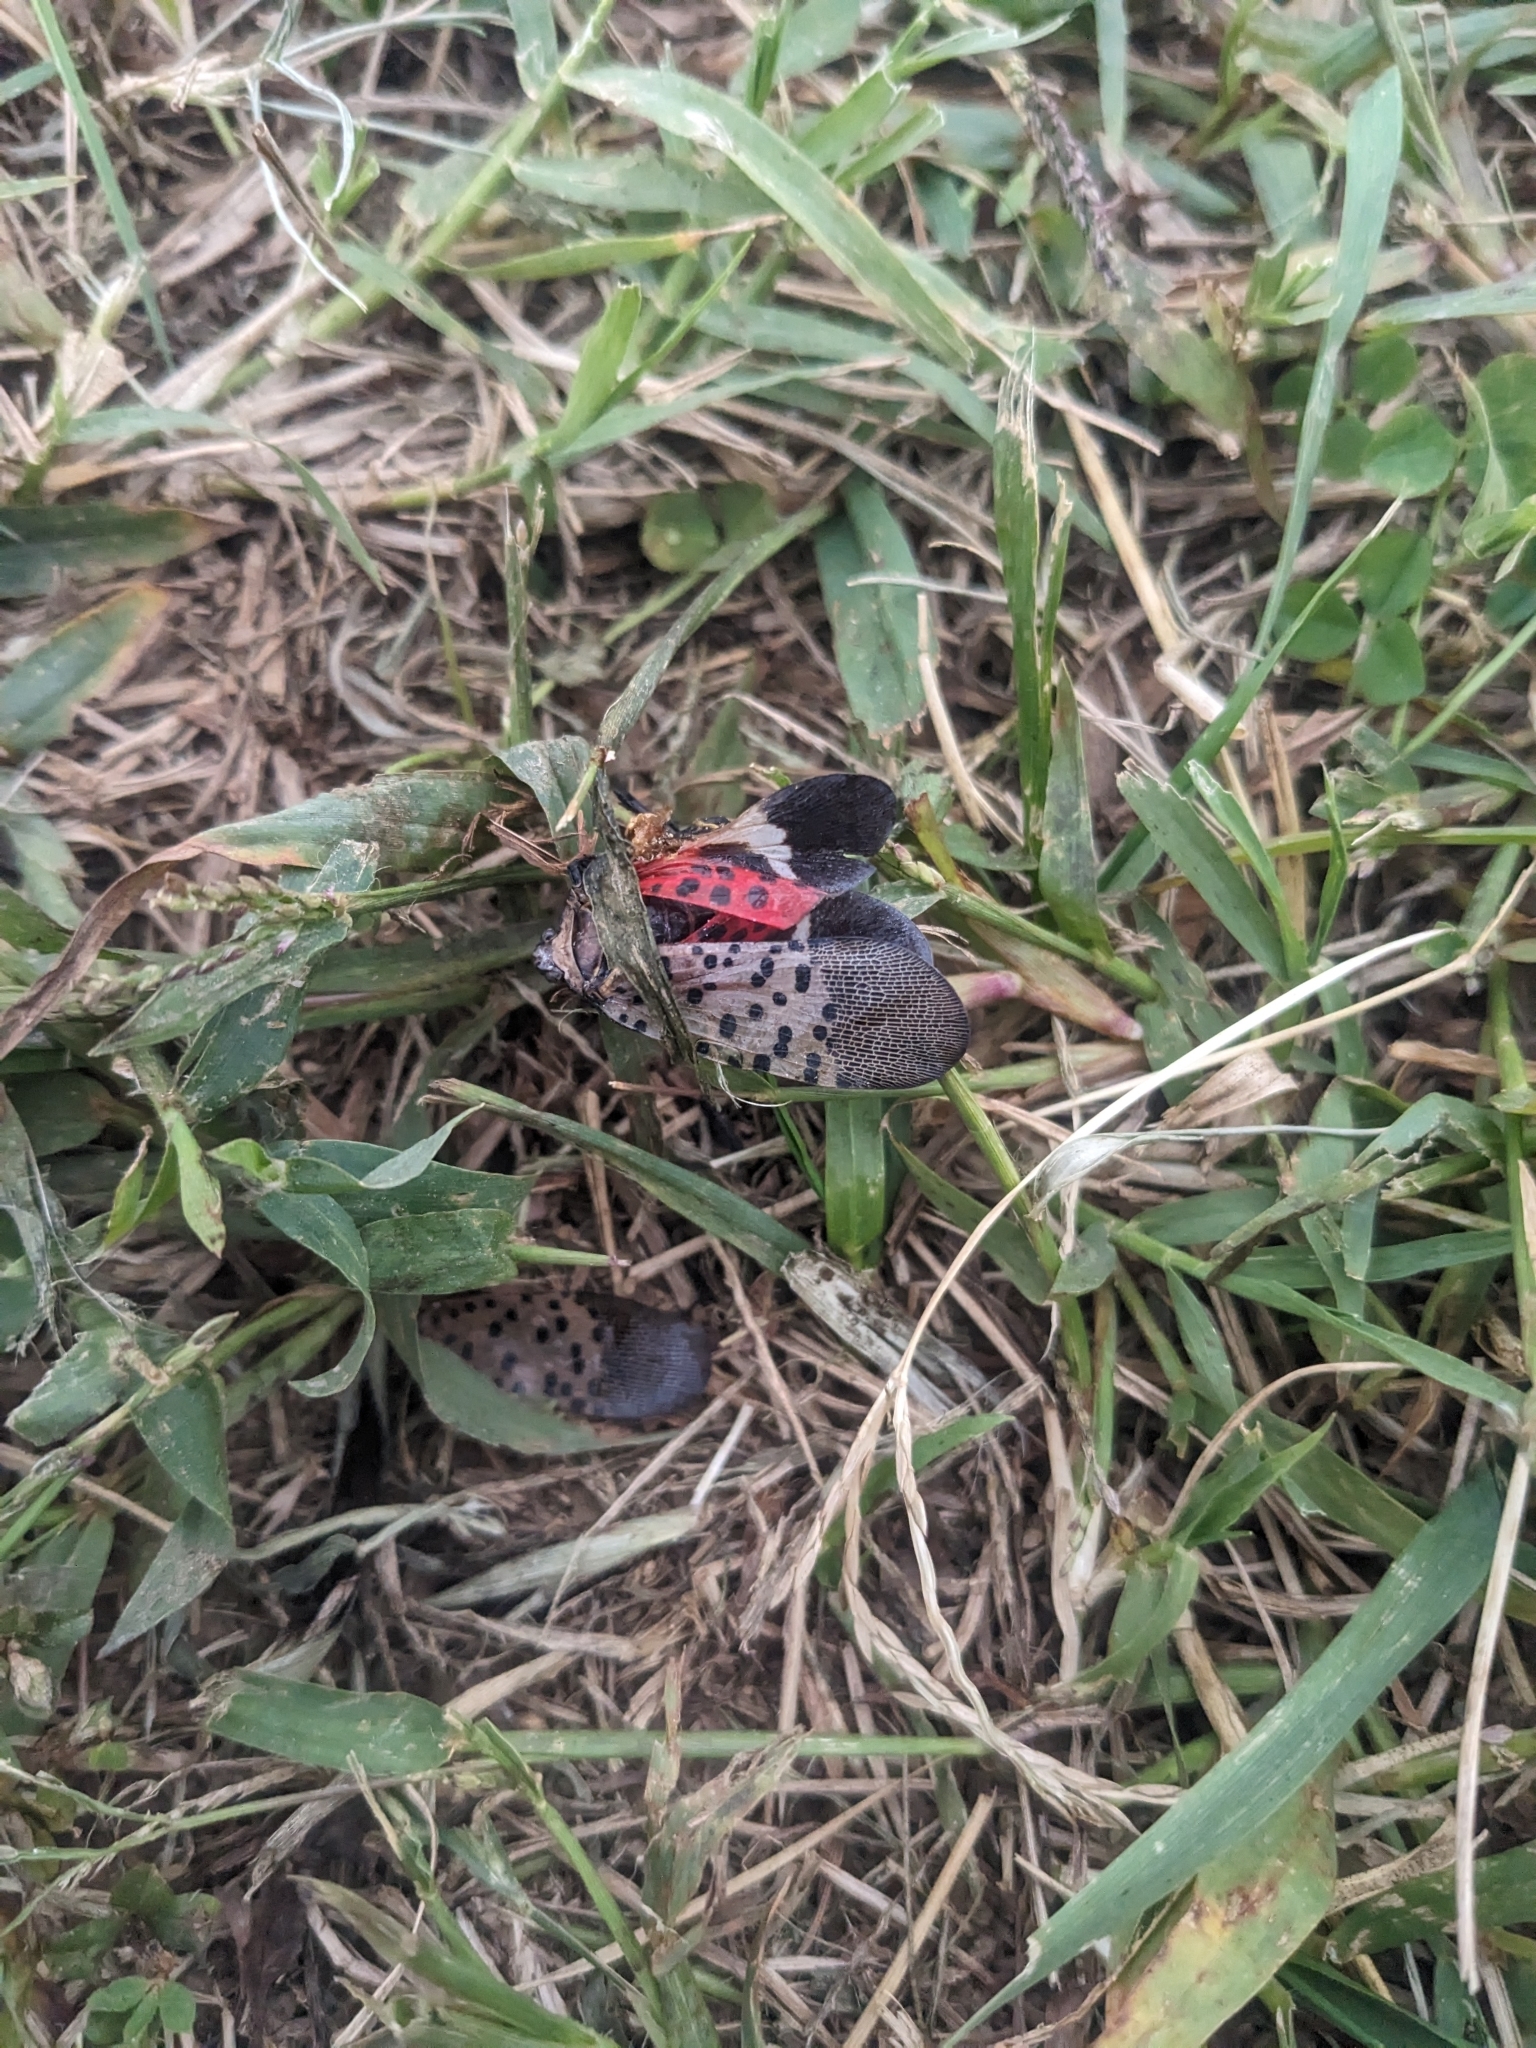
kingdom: Animalia
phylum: Arthropoda
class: Insecta
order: Hemiptera
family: Fulgoridae
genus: Lycorma
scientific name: Lycorma delicatula
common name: Spotted lanternfly
